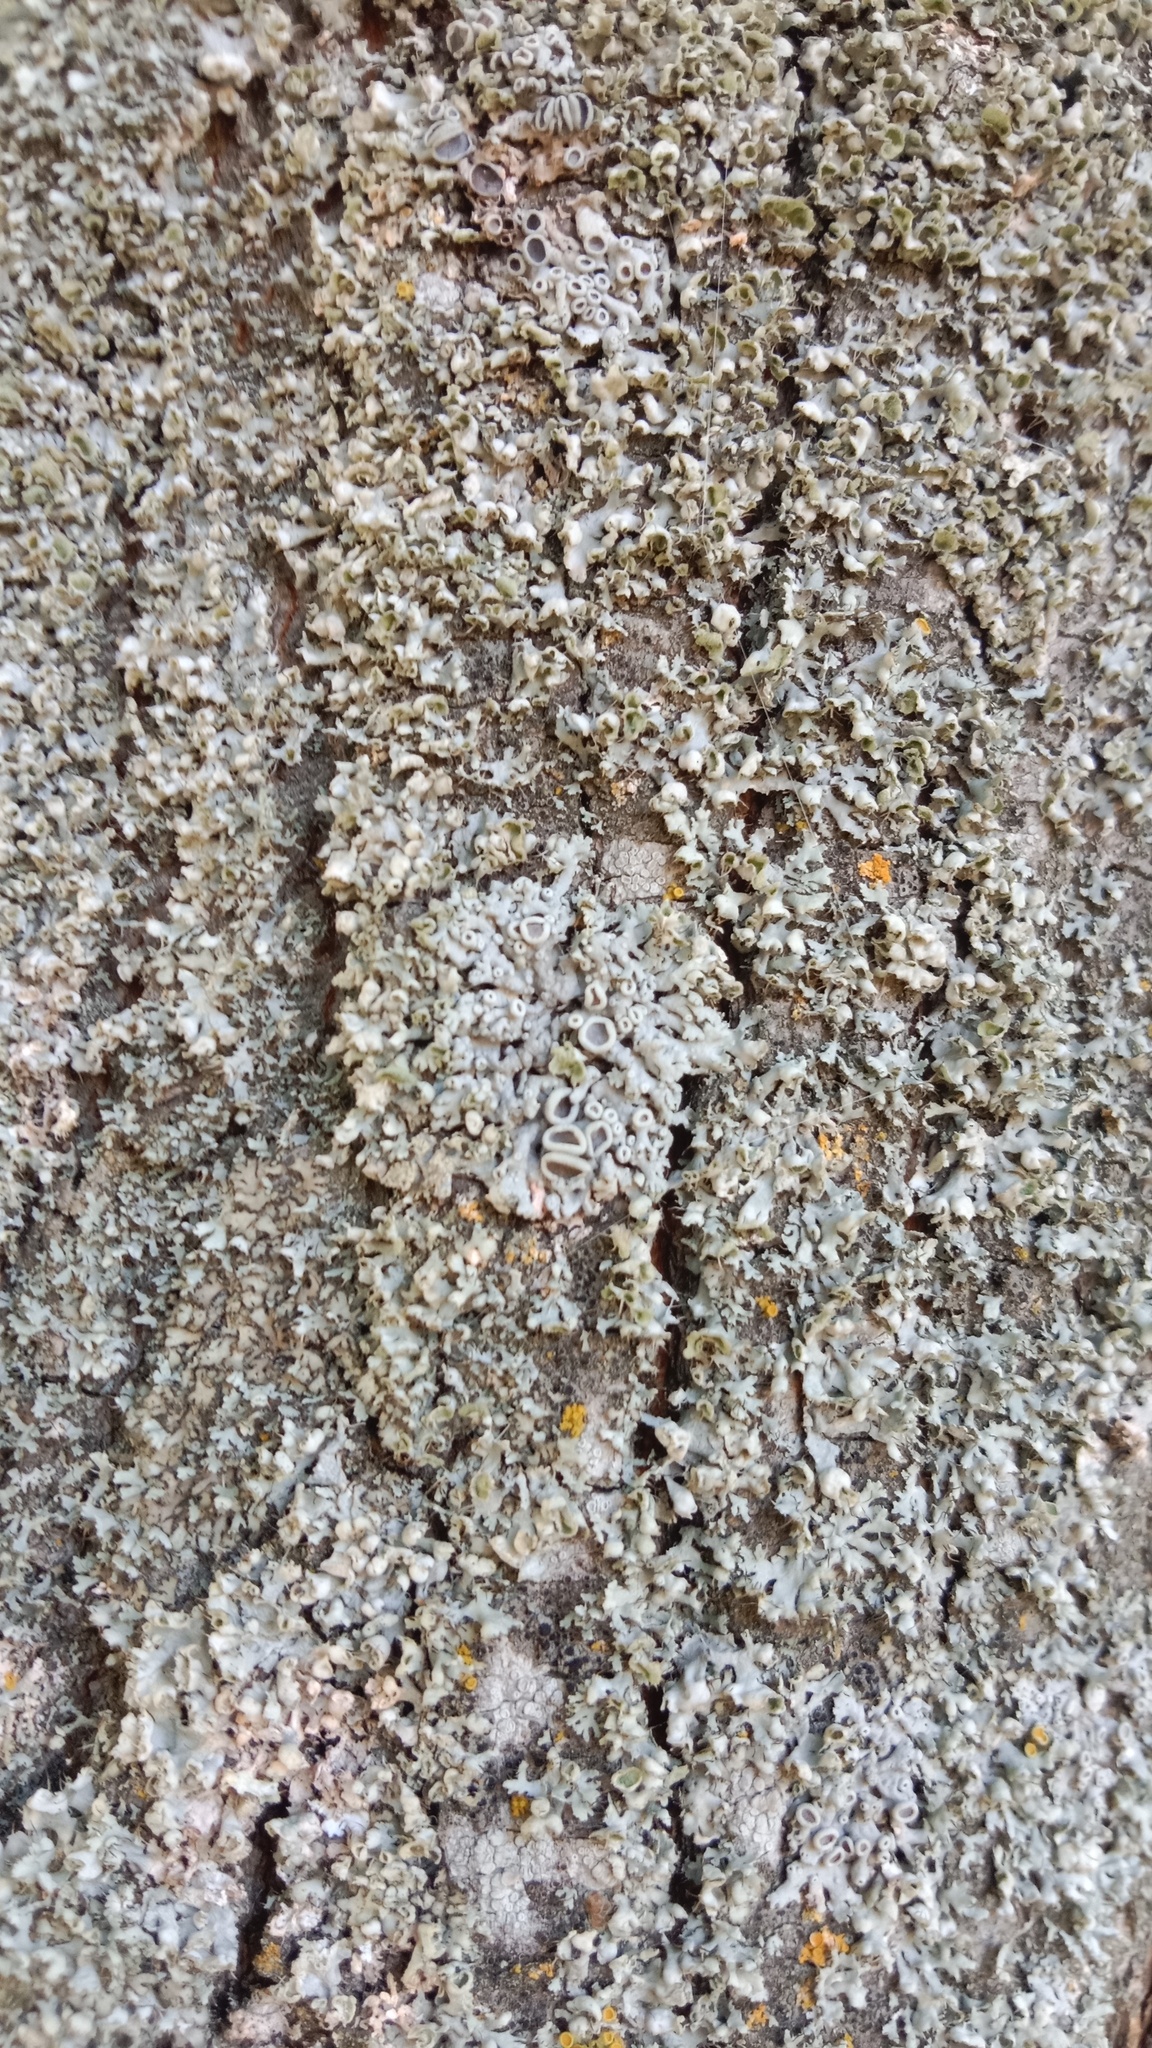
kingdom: Fungi
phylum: Ascomycota
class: Lecanoromycetes
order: Caliciales
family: Physciaceae
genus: Physcia
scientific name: Physcia adscendens
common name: Hooded rosette lichen
